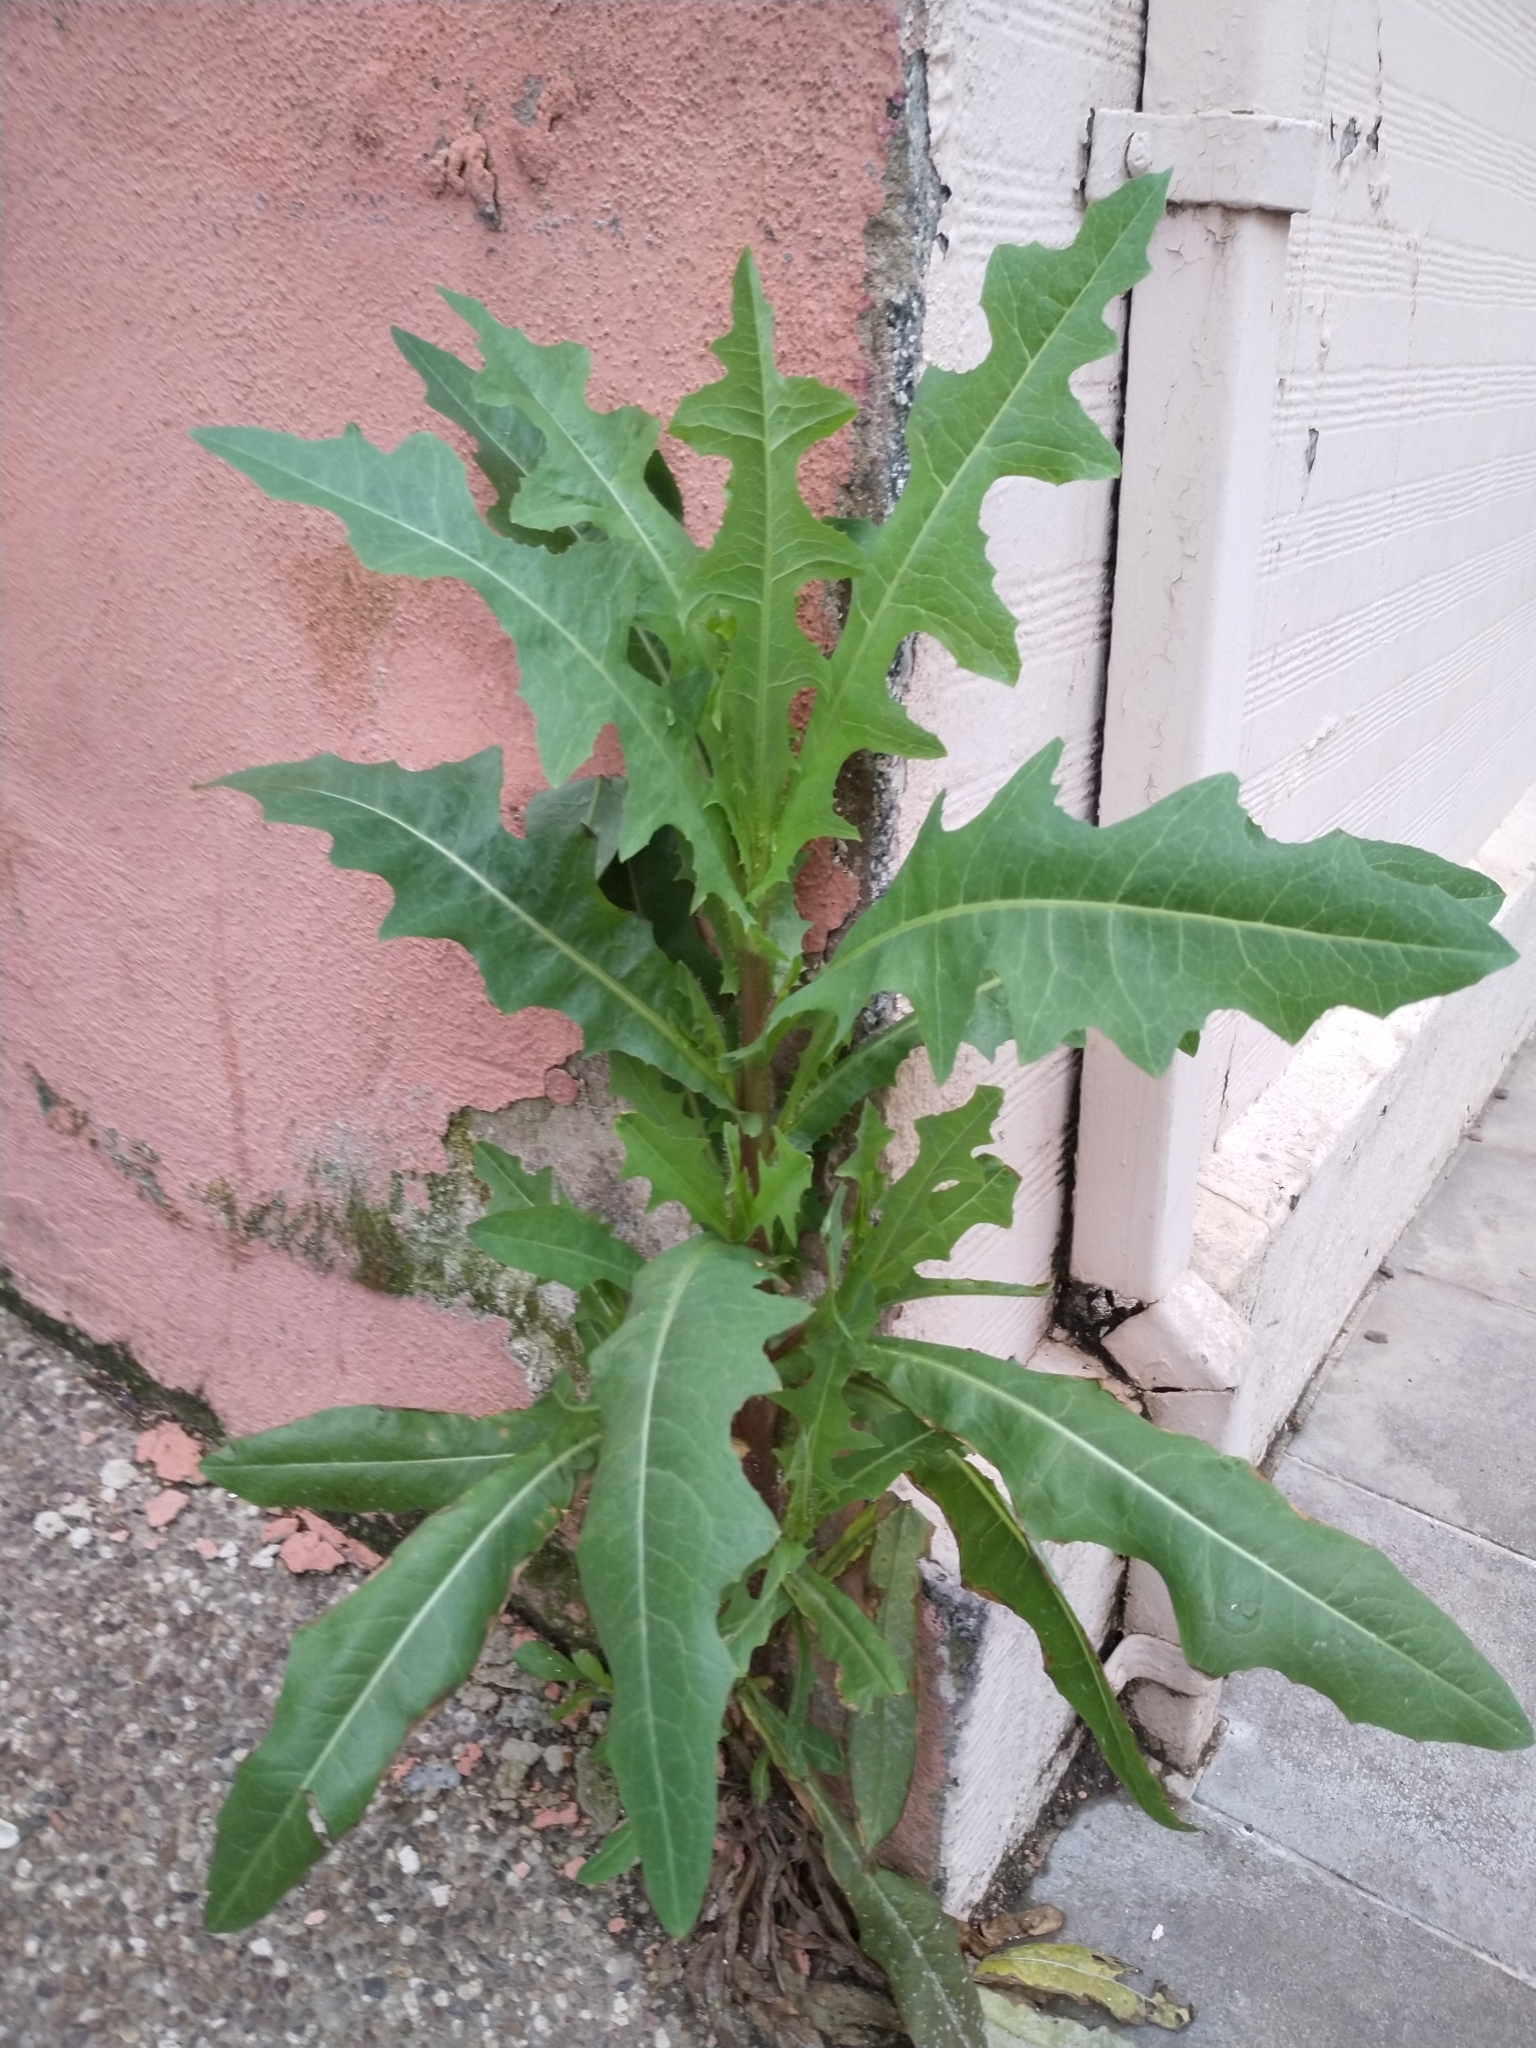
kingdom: Plantae
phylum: Tracheophyta
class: Magnoliopsida
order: Asterales
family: Asteraceae
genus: Lactuca
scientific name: Lactuca serriola
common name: Prickly lettuce
